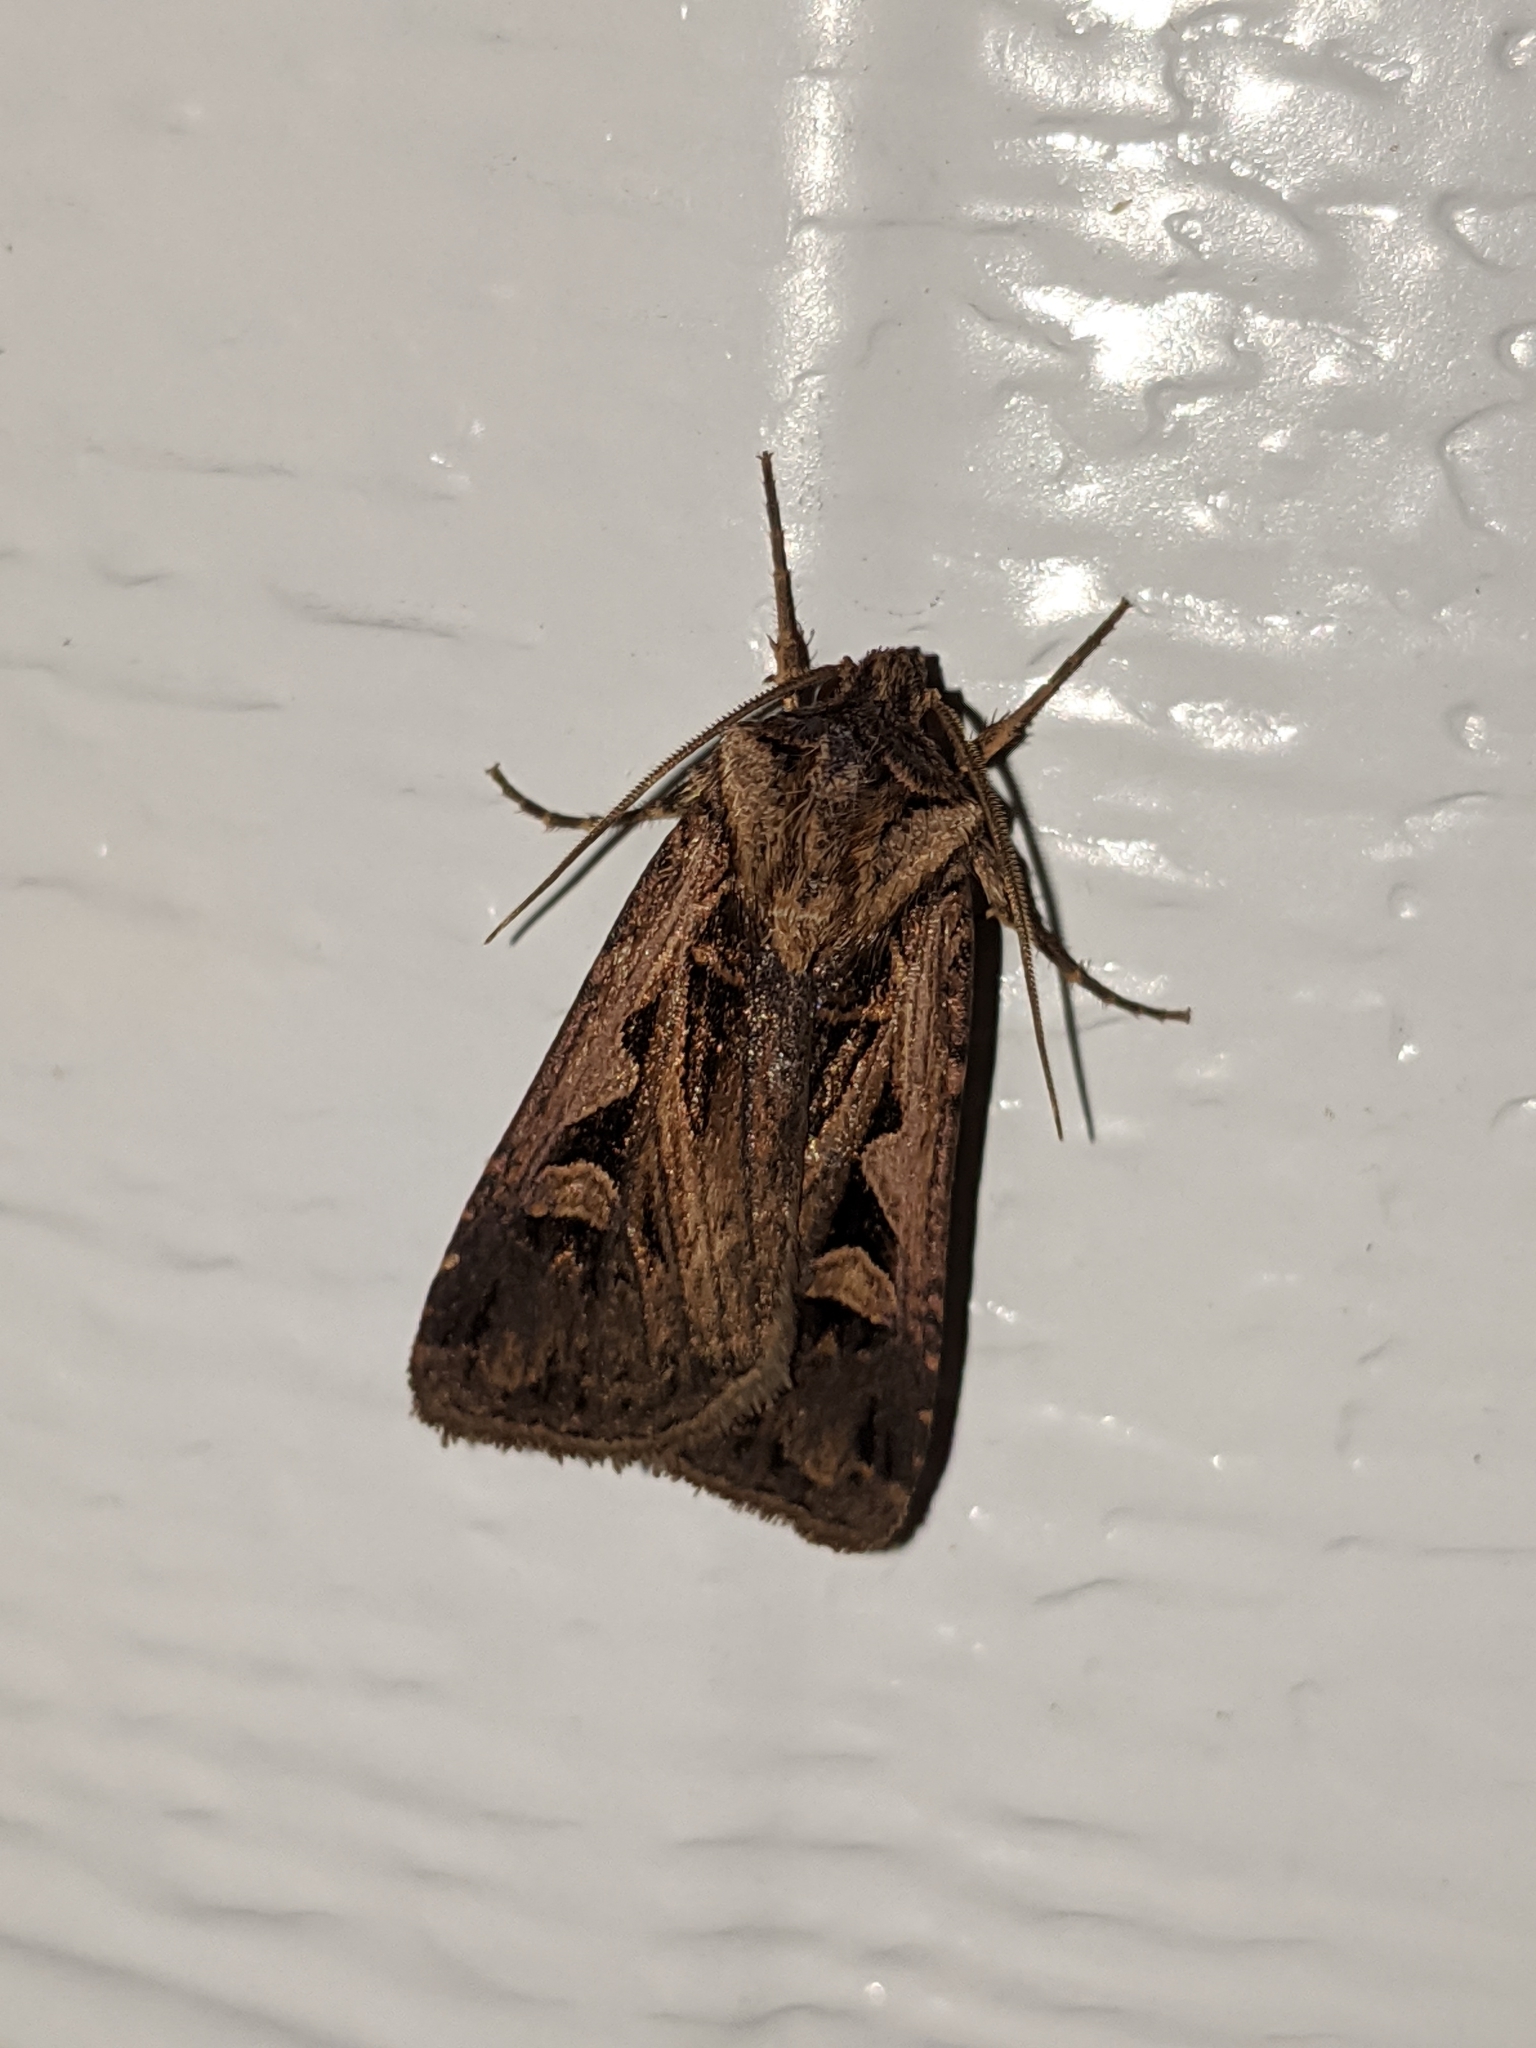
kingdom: Animalia
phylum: Arthropoda
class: Insecta
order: Lepidoptera
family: Noctuidae
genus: Feltia
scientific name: Feltia
